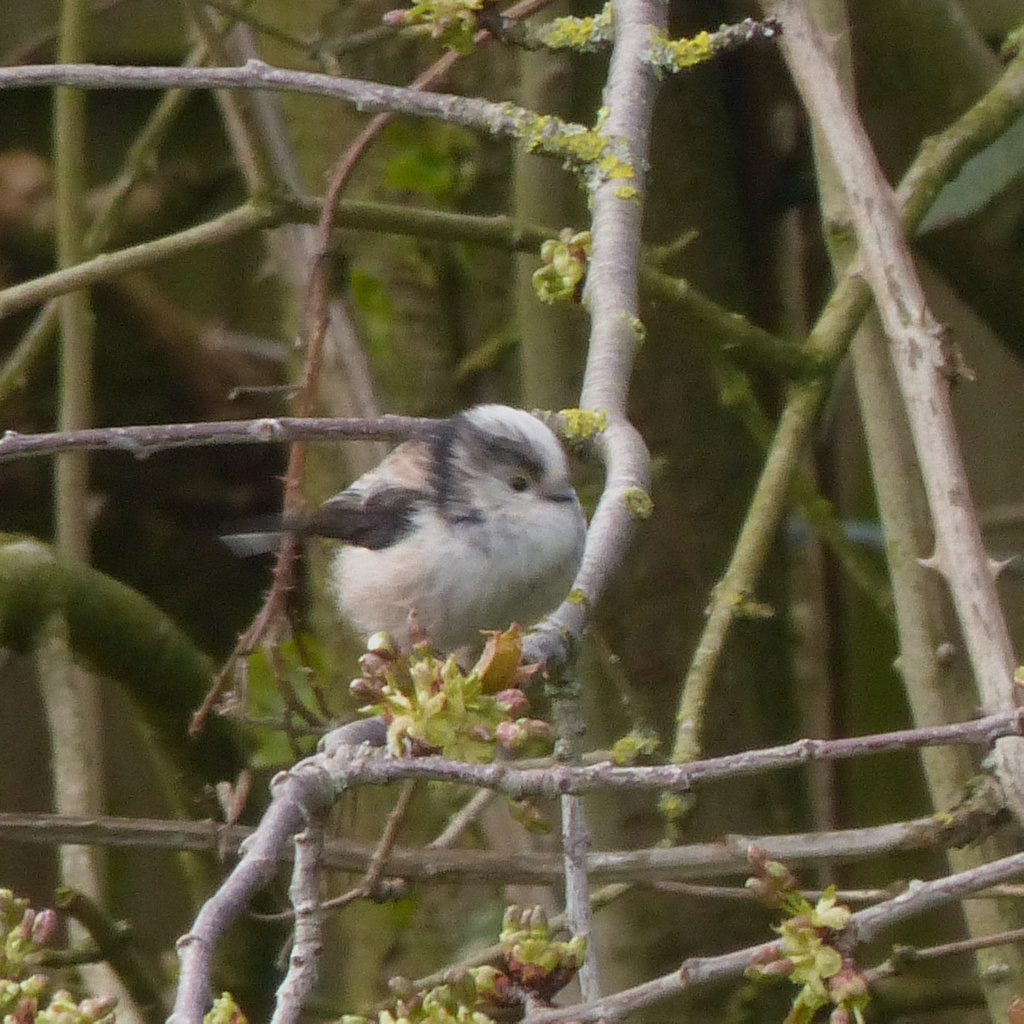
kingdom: Animalia
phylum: Chordata
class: Aves
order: Passeriformes
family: Aegithalidae
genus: Aegithalos
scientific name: Aegithalos caudatus
